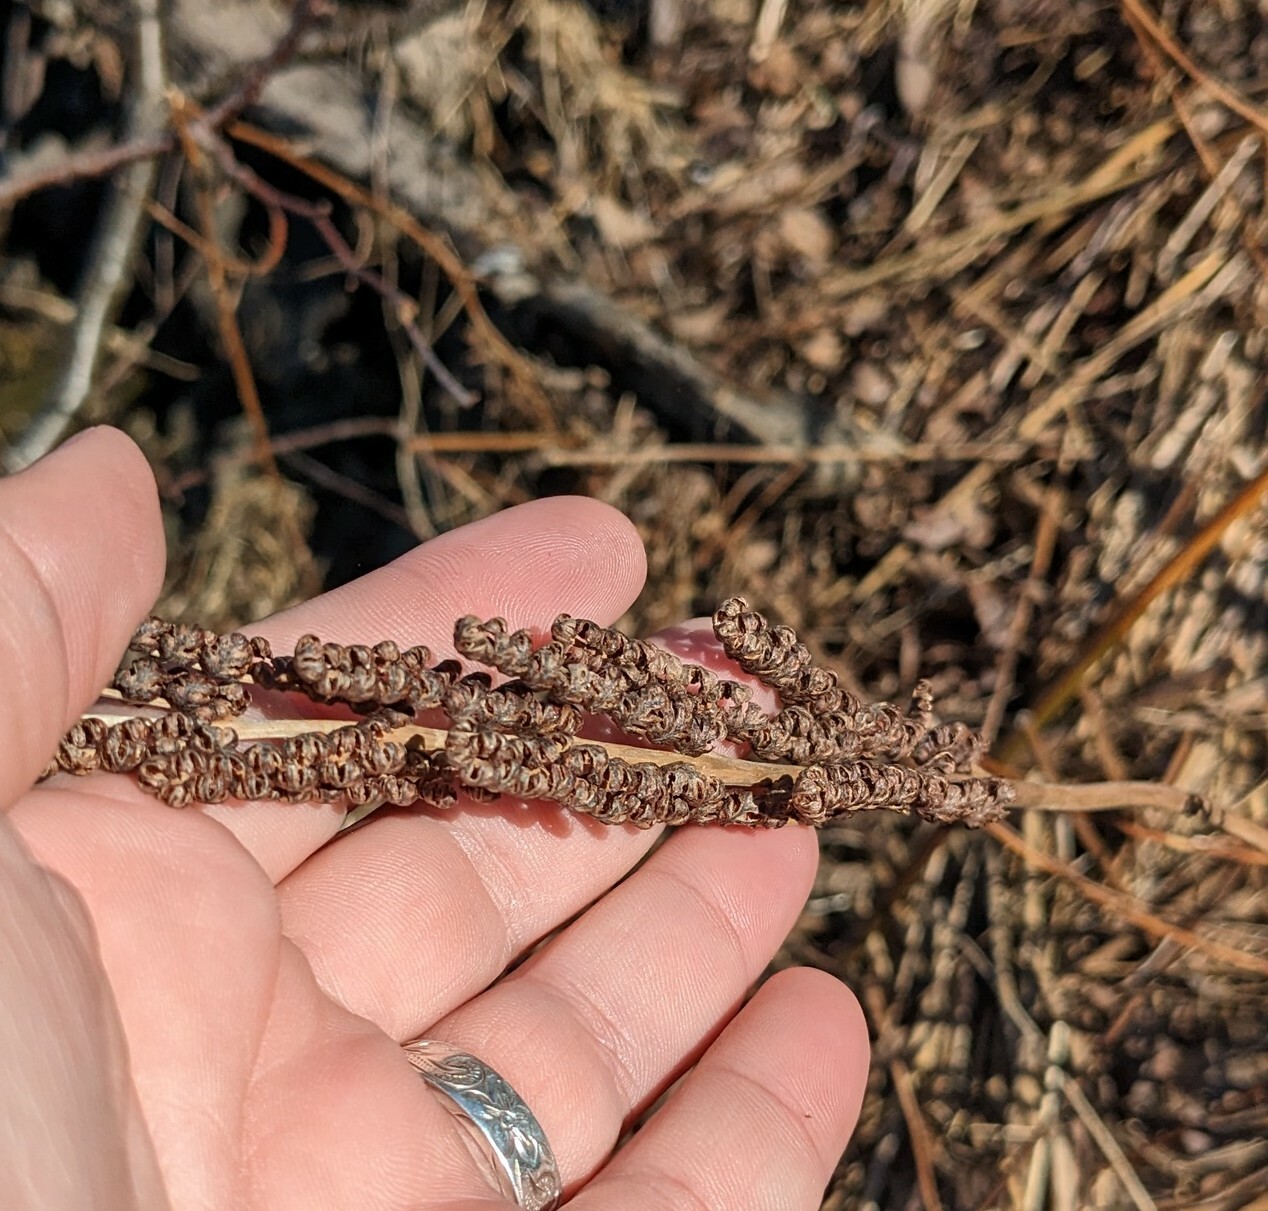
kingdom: Plantae
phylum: Tracheophyta
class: Polypodiopsida
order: Polypodiales
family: Onocleaceae
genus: Onoclea
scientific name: Onoclea sensibilis
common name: Sensitive fern
